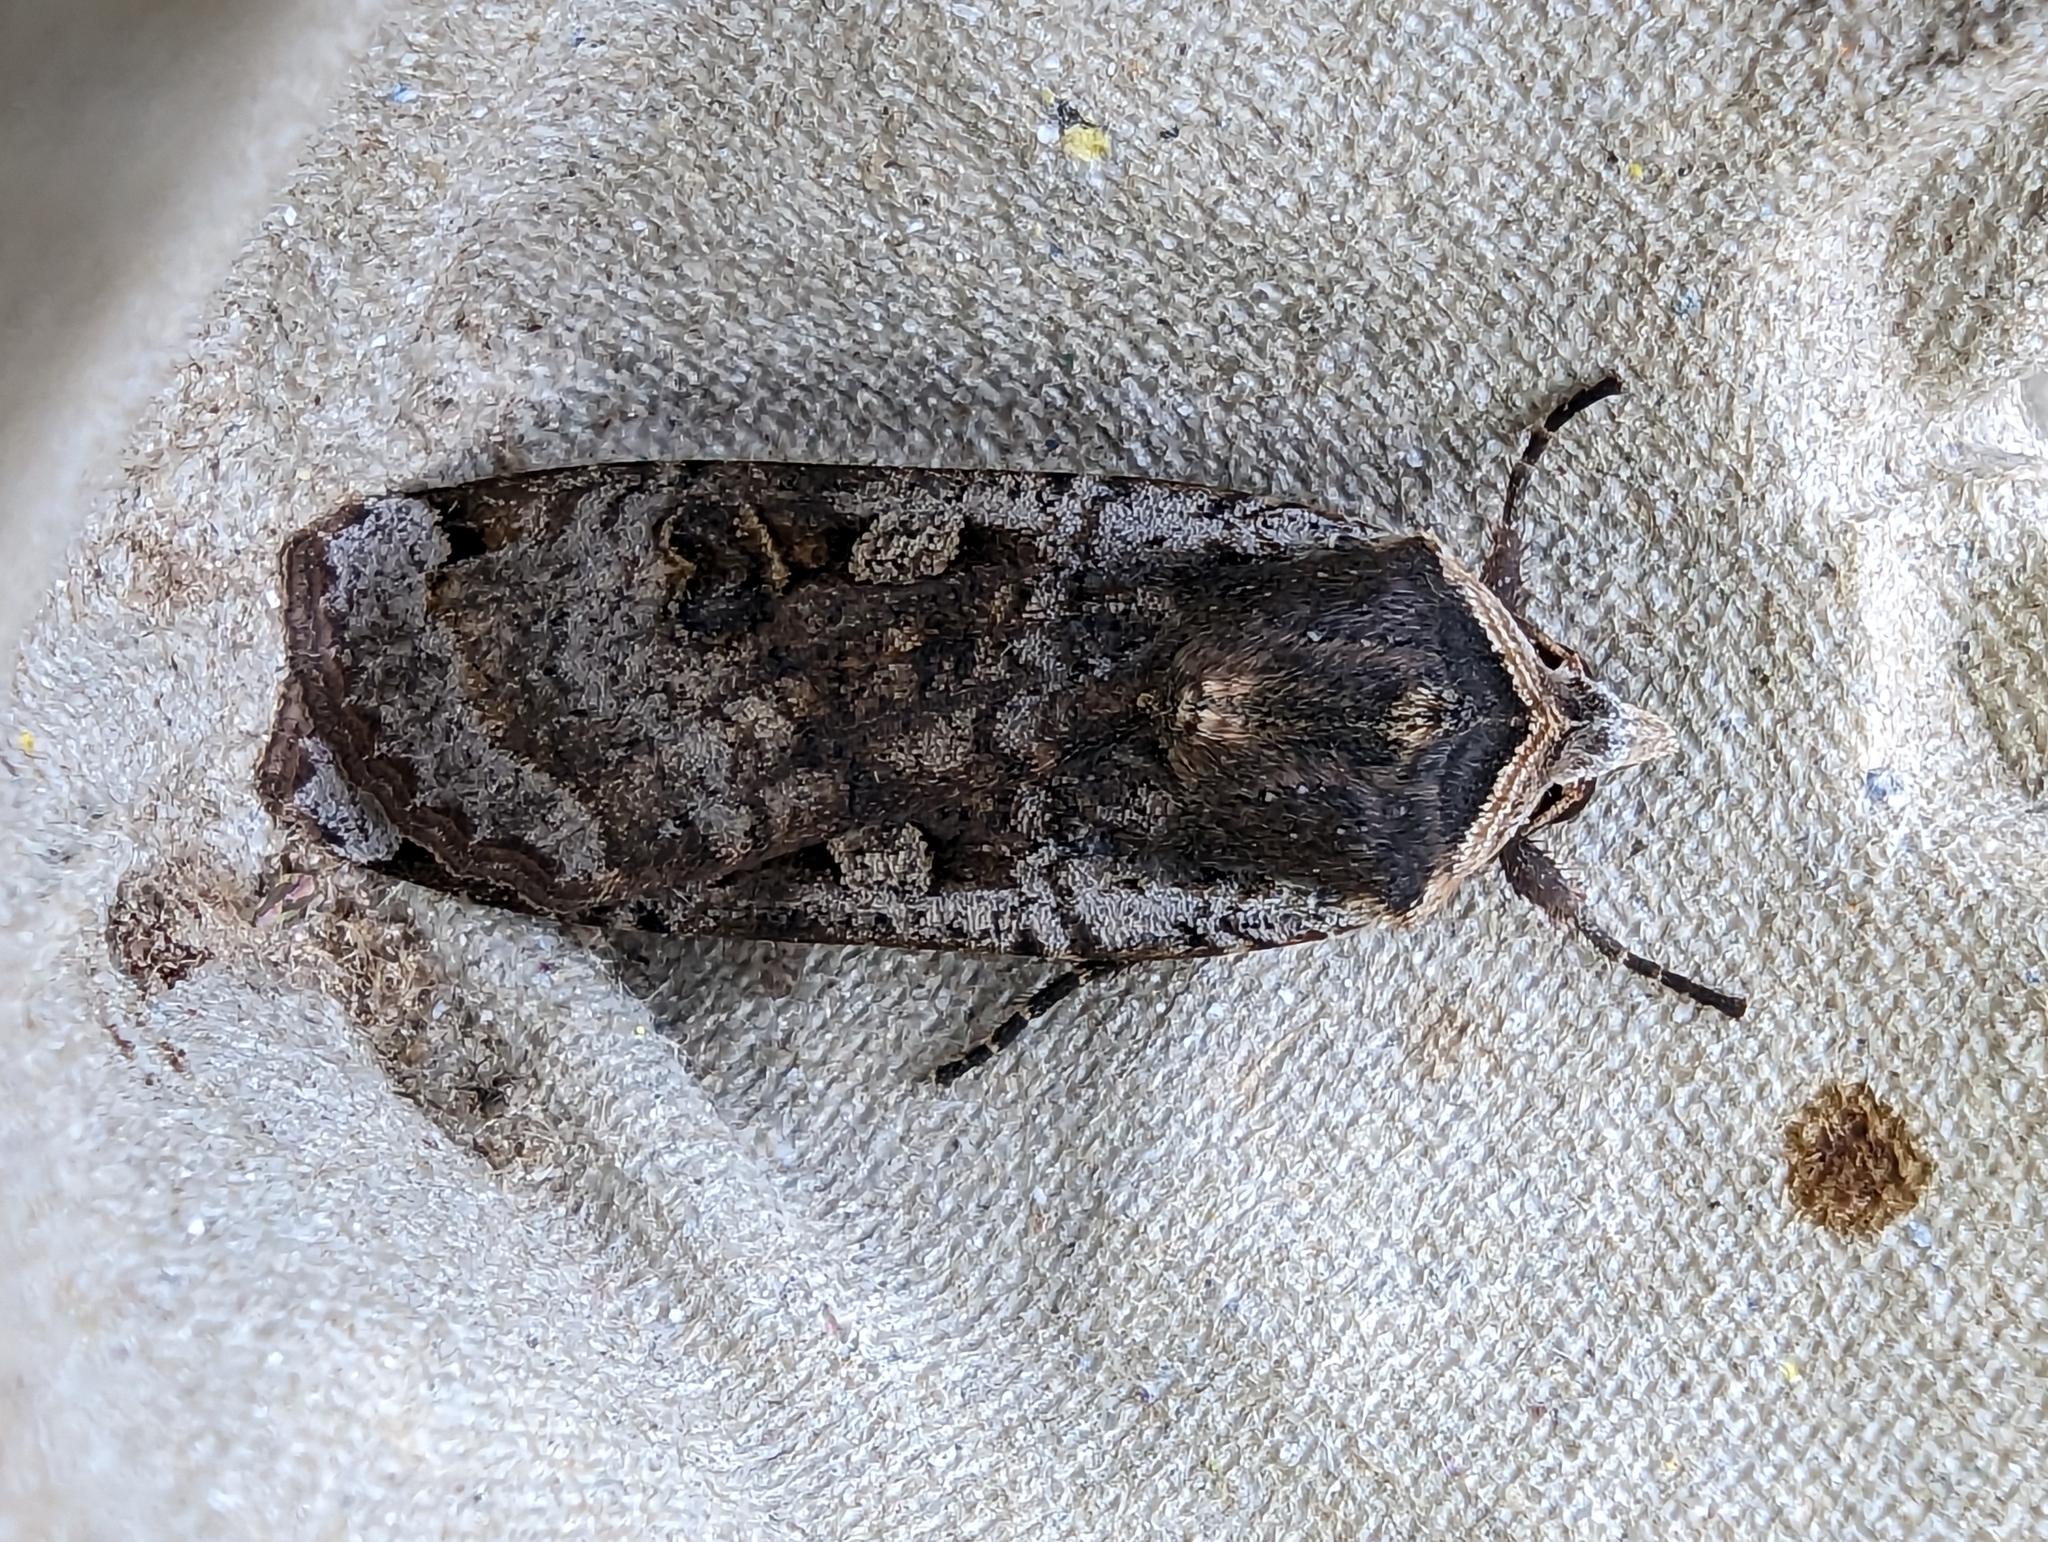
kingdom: Animalia
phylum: Arthropoda
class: Insecta
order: Lepidoptera
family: Noctuidae
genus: Noctua
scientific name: Noctua pronuba
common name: Large yellow underwing
